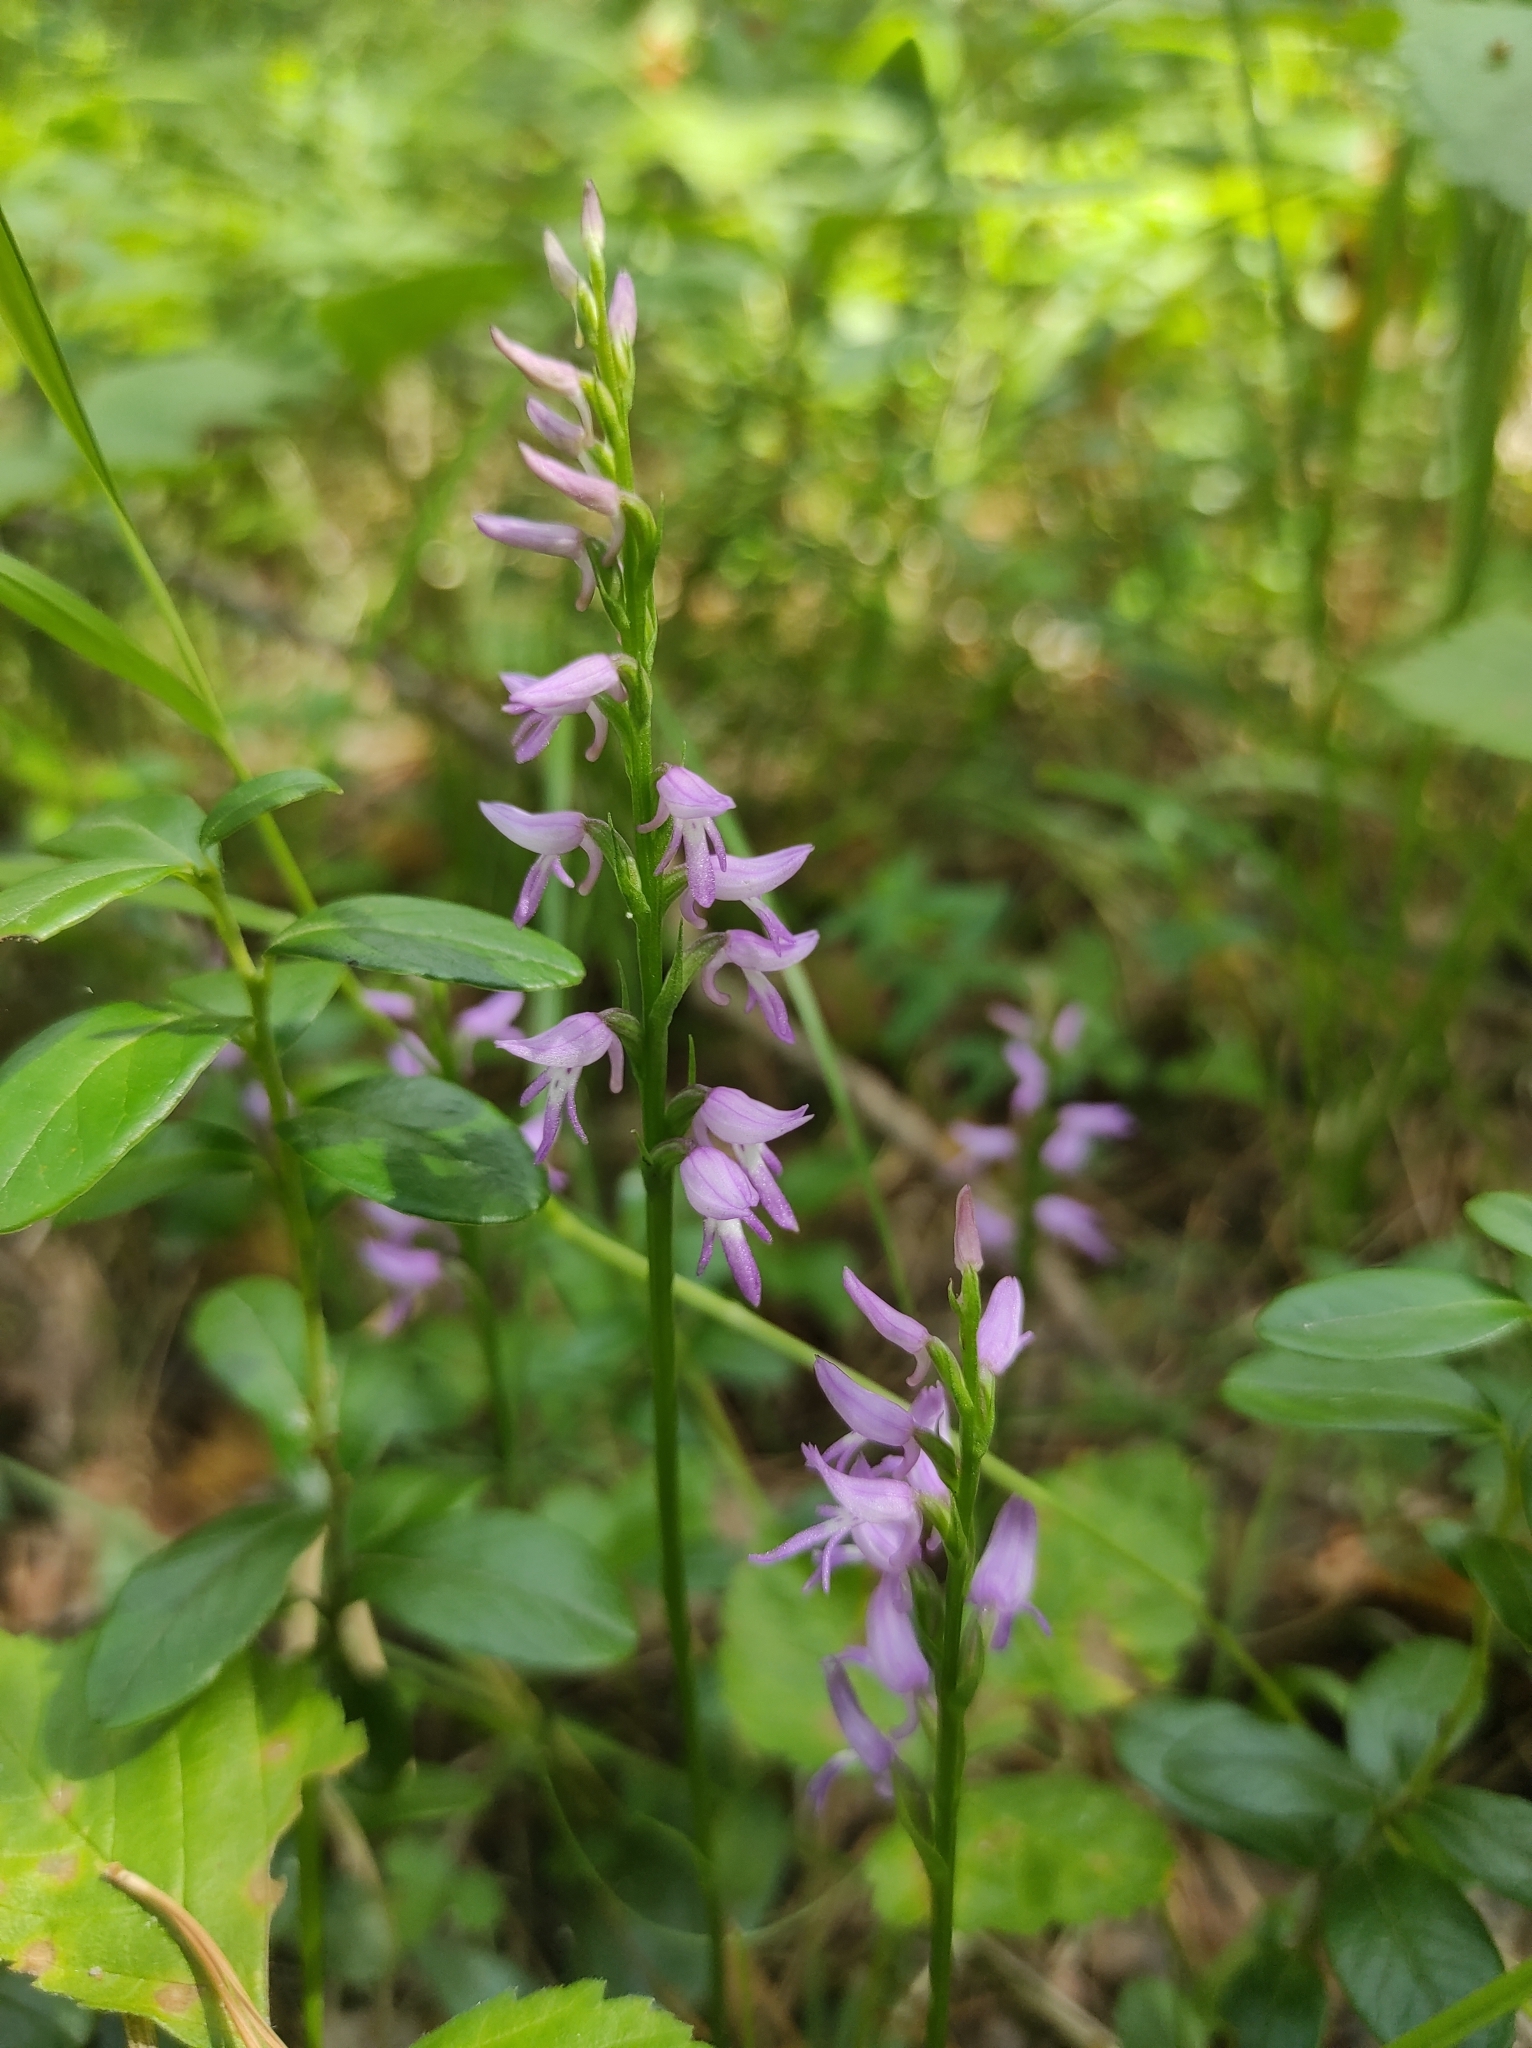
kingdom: Plantae
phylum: Tracheophyta
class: Liliopsida
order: Asparagales
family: Orchidaceae
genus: Hemipilia
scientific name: Hemipilia cucullata
